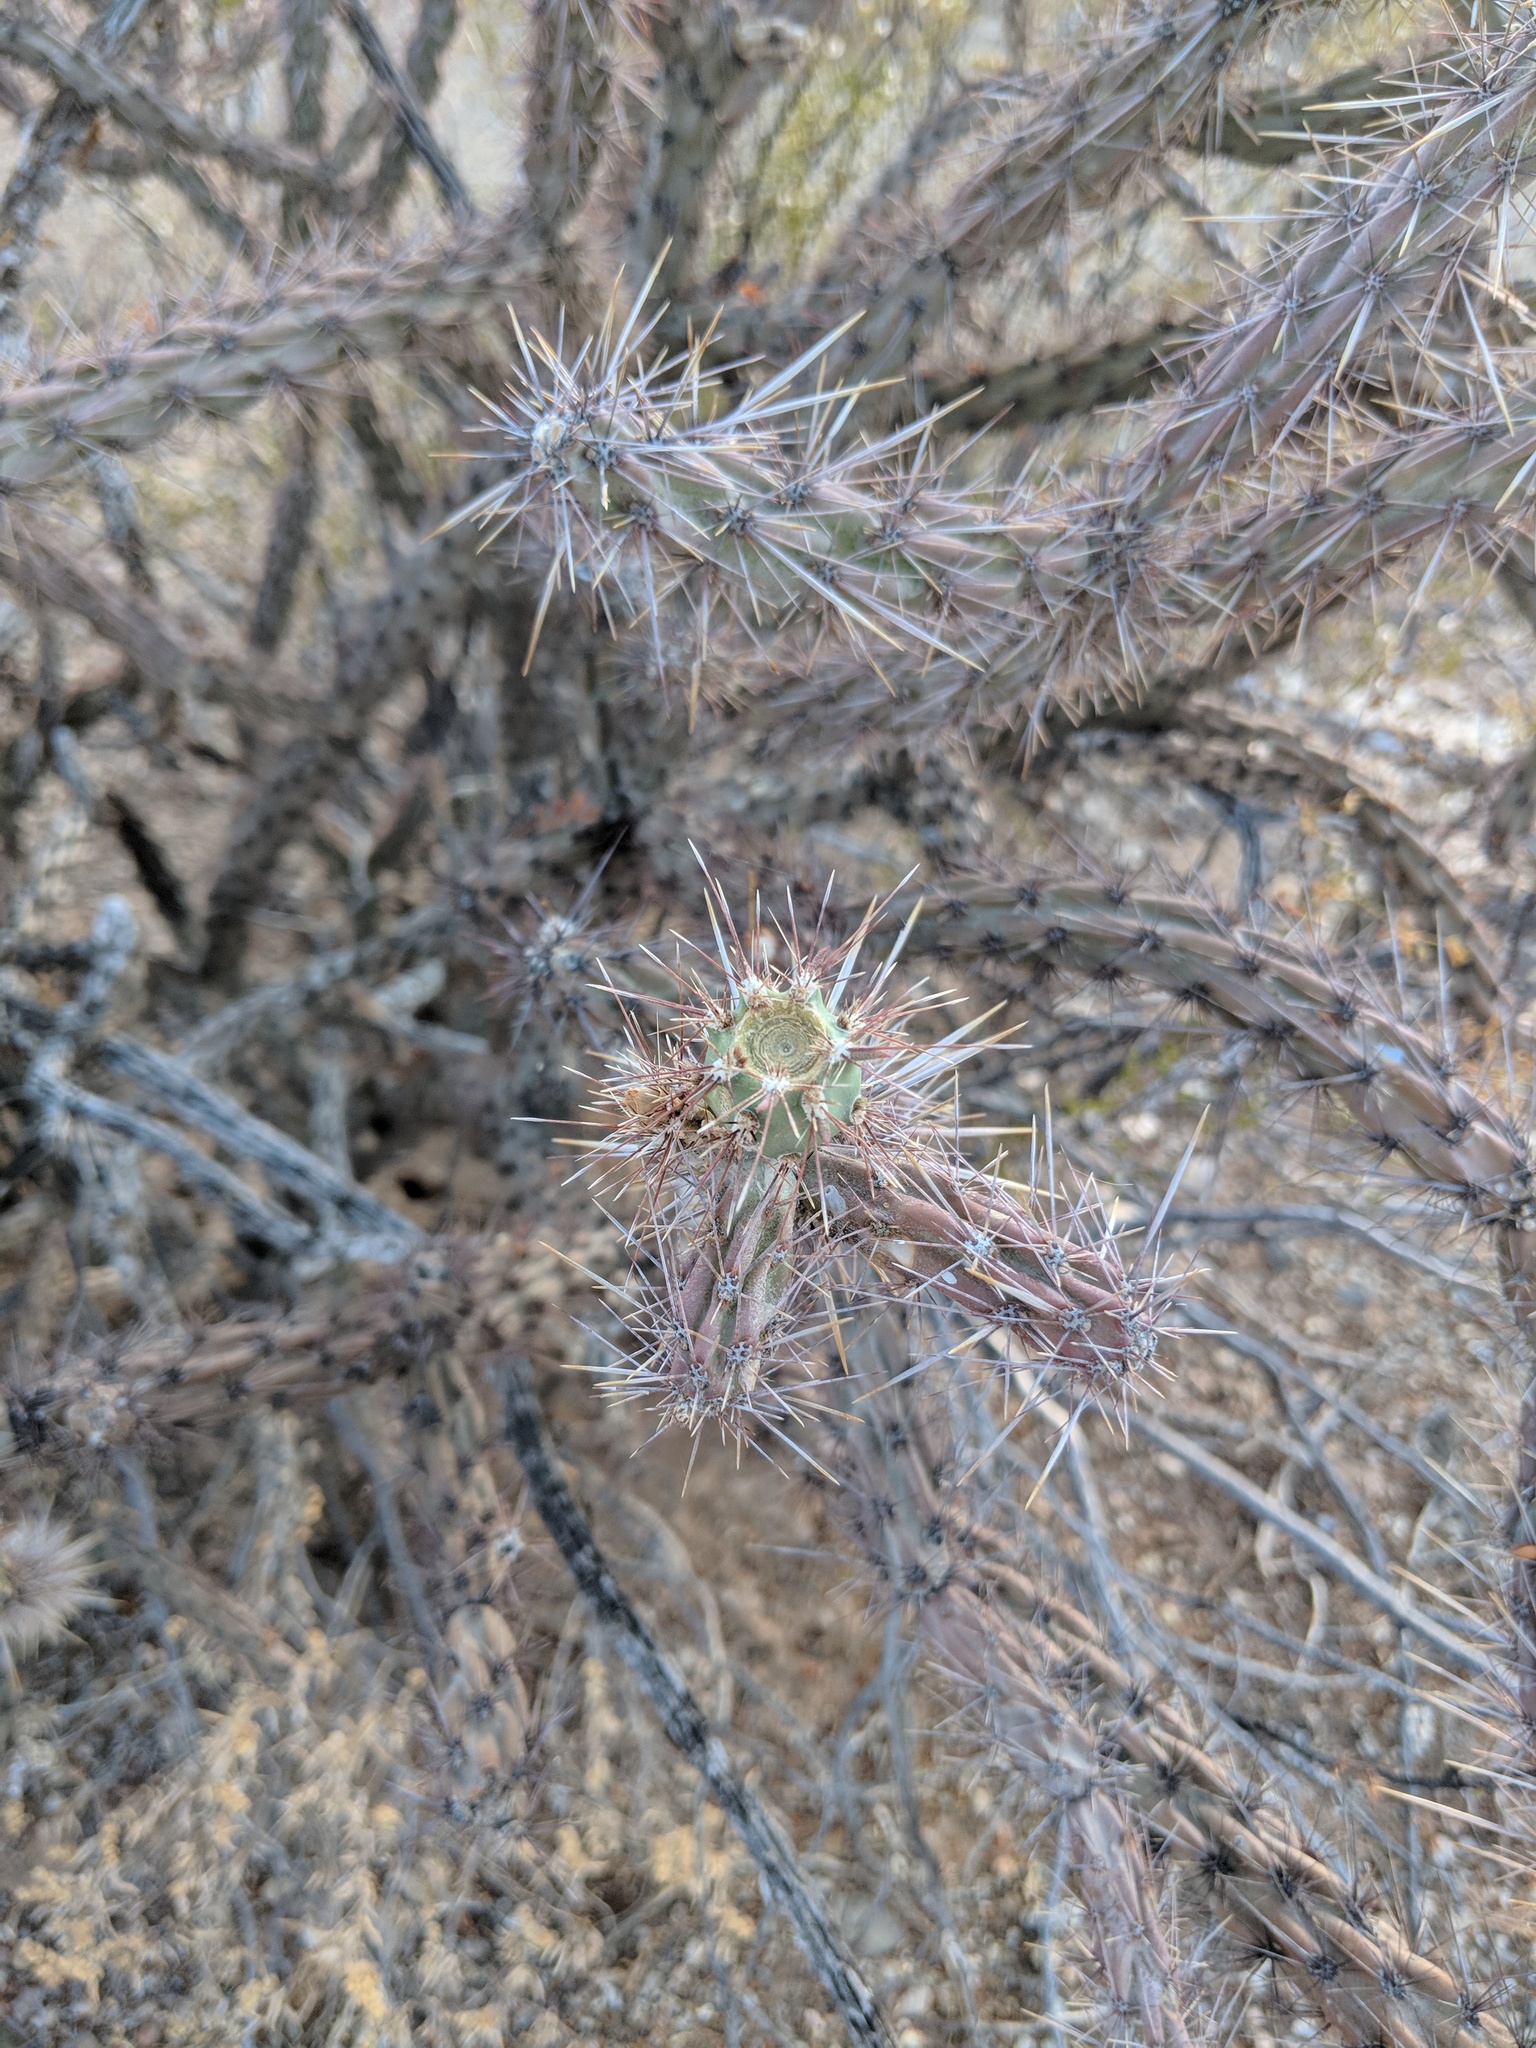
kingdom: Plantae
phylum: Tracheophyta
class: Magnoliopsida
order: Caryophyllales
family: Cactaceae
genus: Cylindropuntia
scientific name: Cylindropuntia acanthocarpa
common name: Buckhorn cholla
